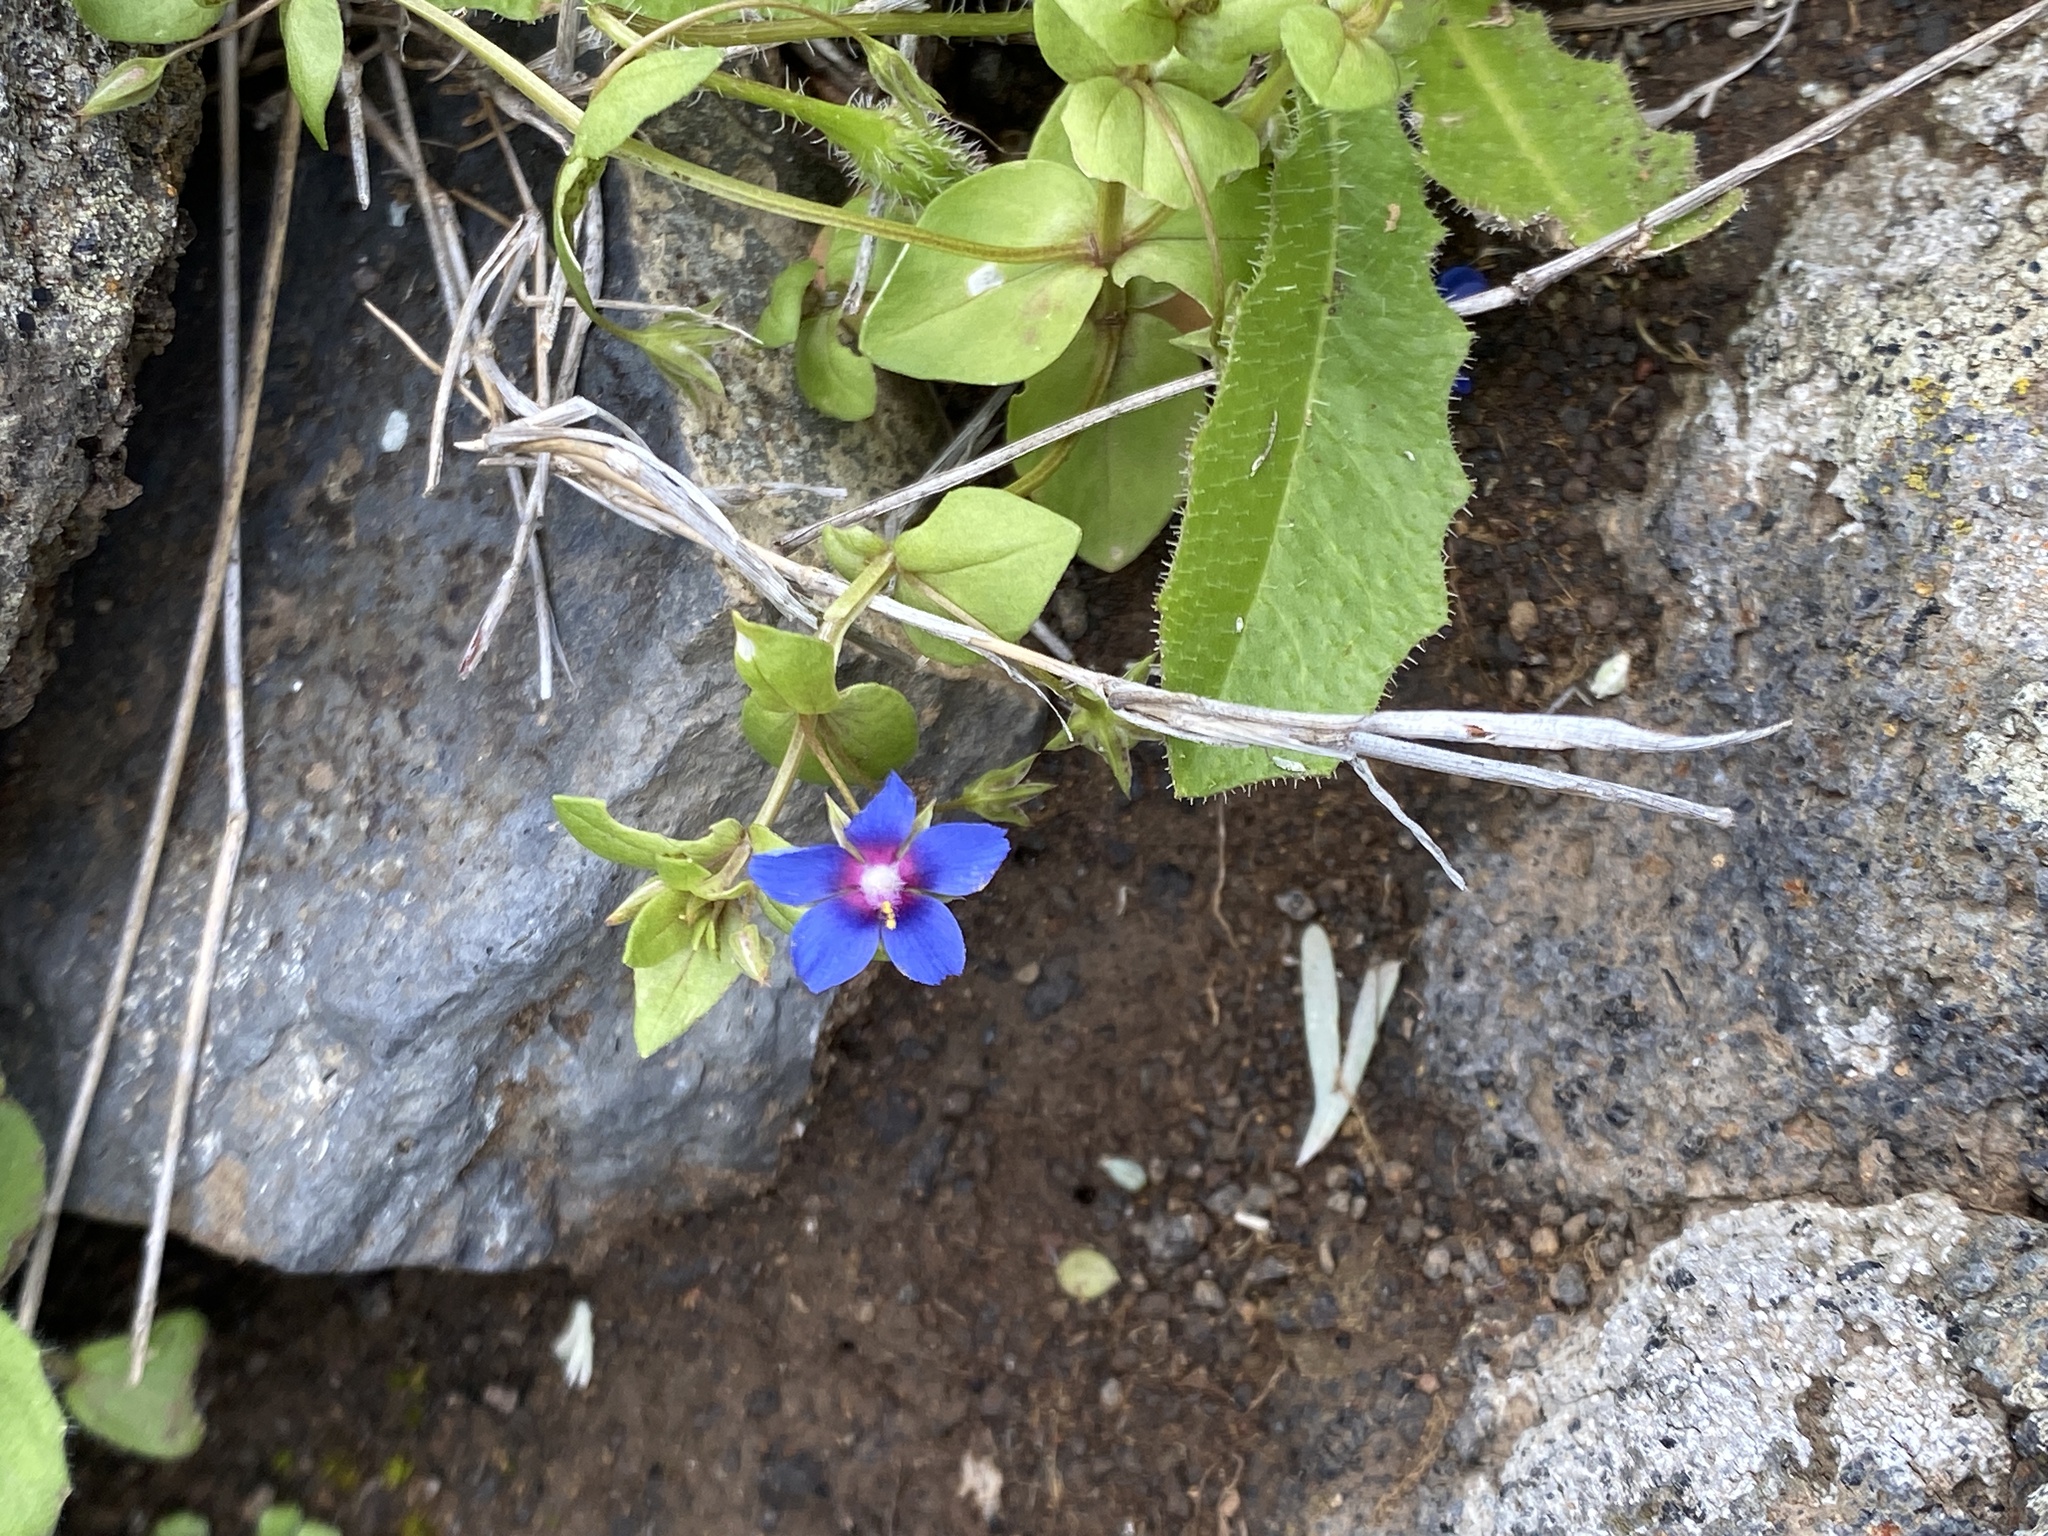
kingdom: Plantae
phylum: Tracheophyta
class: Magnoliopsida
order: Ericales
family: Primulaceae
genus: Lysimachia
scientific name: Lysimachia loeflingii
